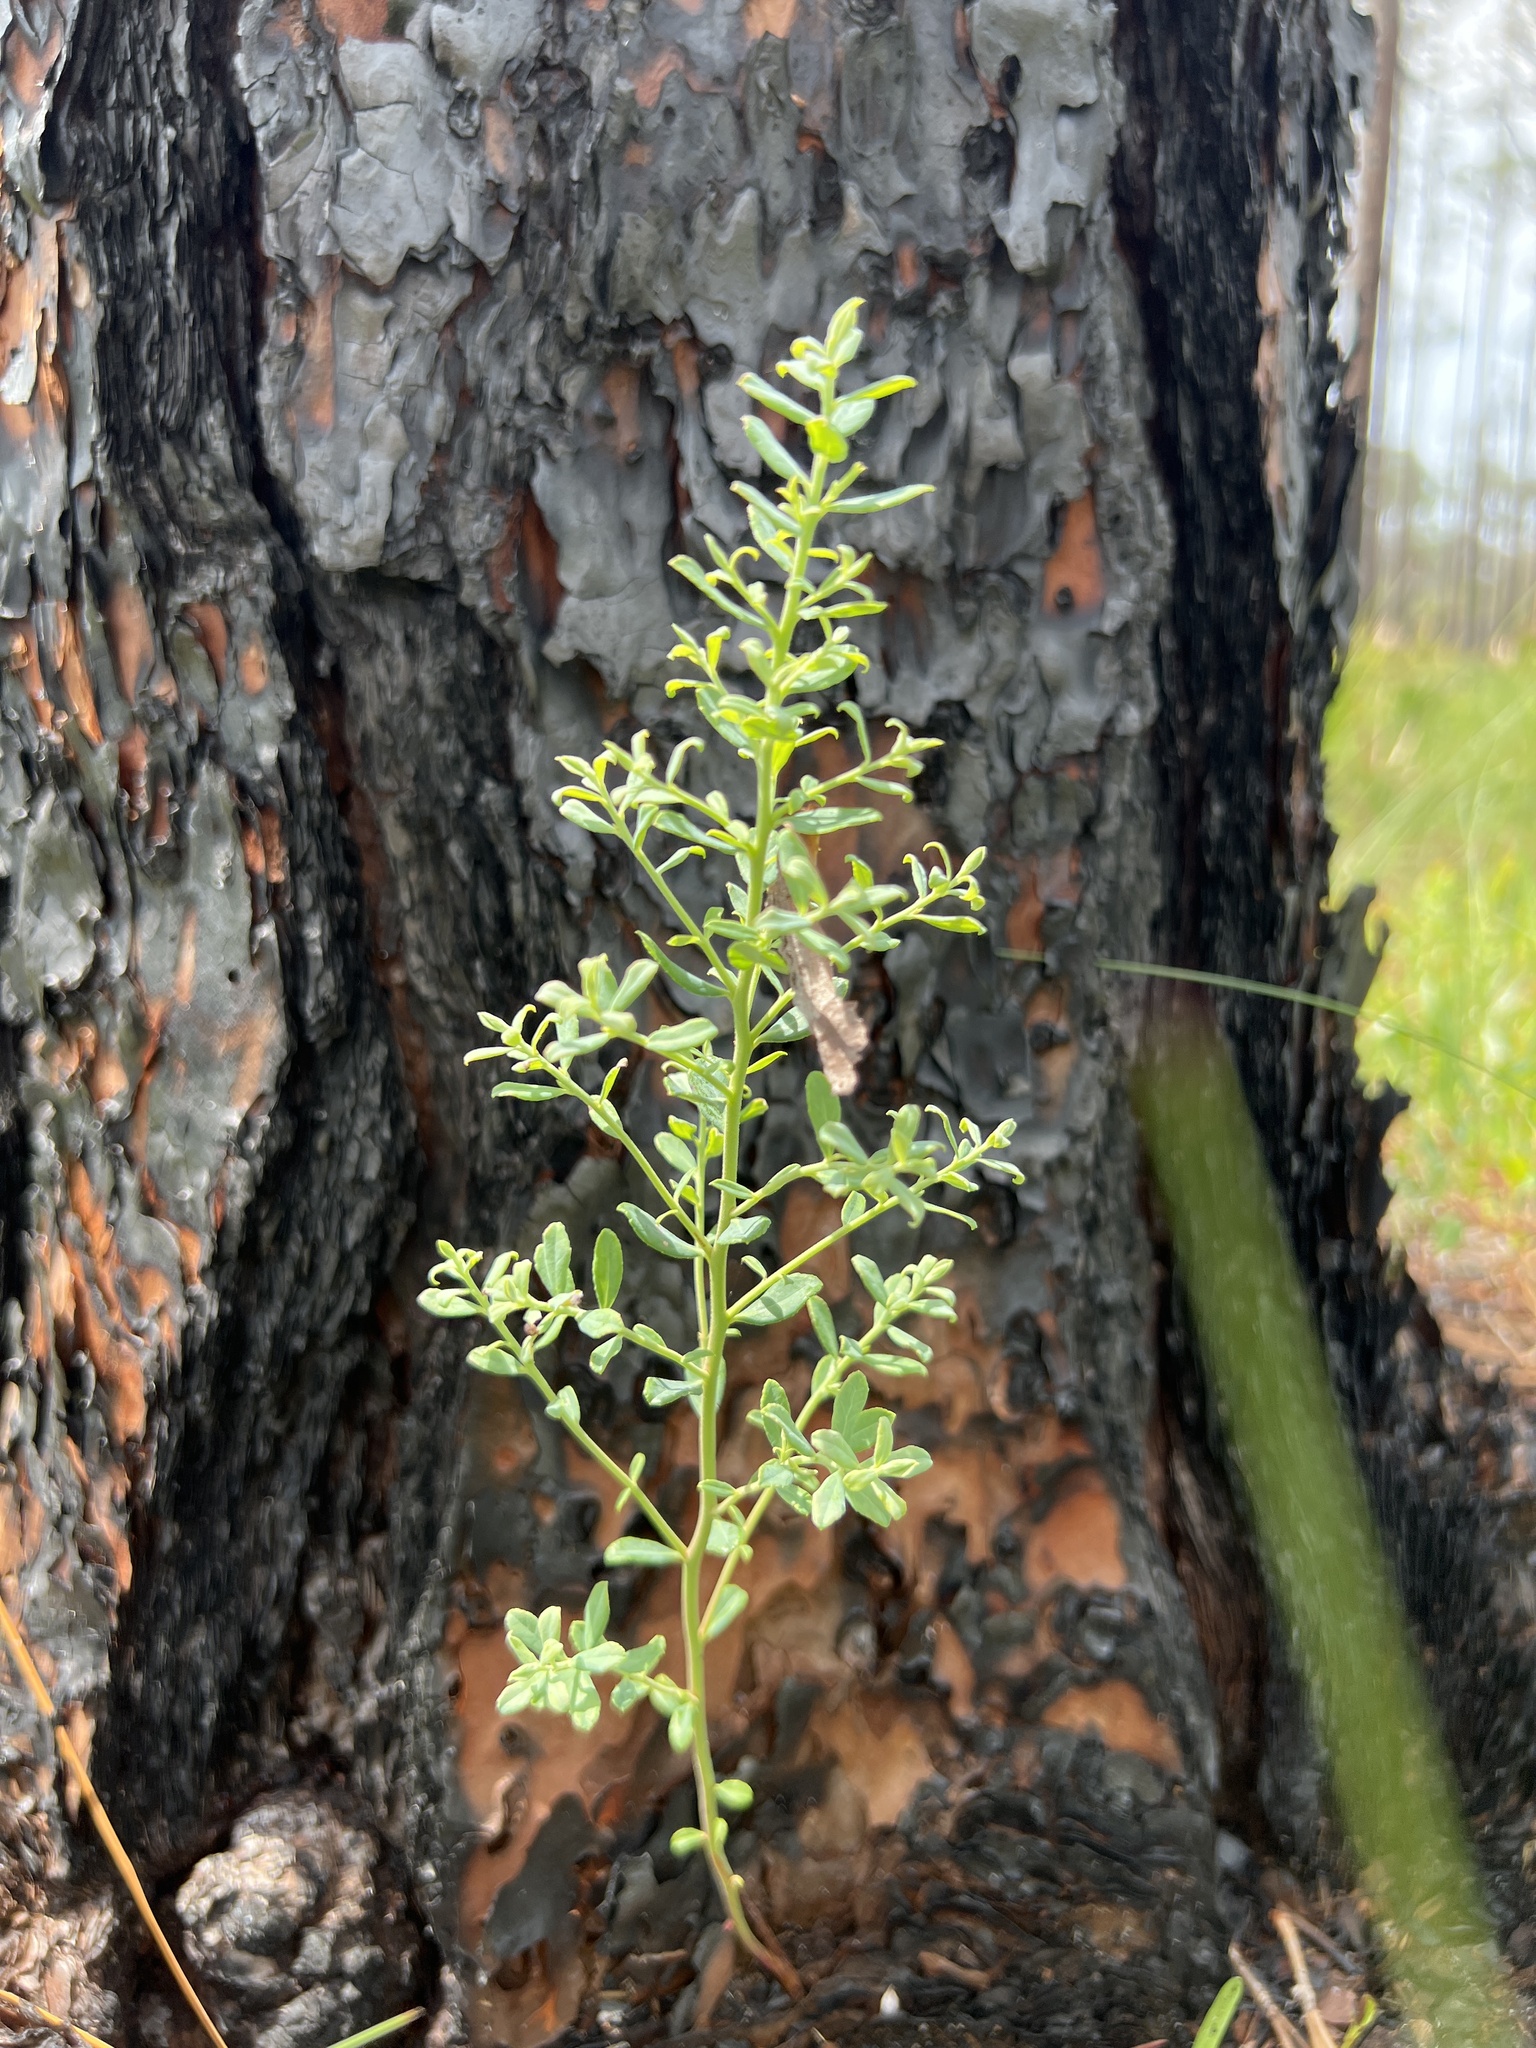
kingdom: Plantae
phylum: Tracheophyta
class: Magnoliopsida
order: Ericales
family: Ericaceae
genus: Vaccinium
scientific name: Vaccinium darrowii
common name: Darrow's blueberry
